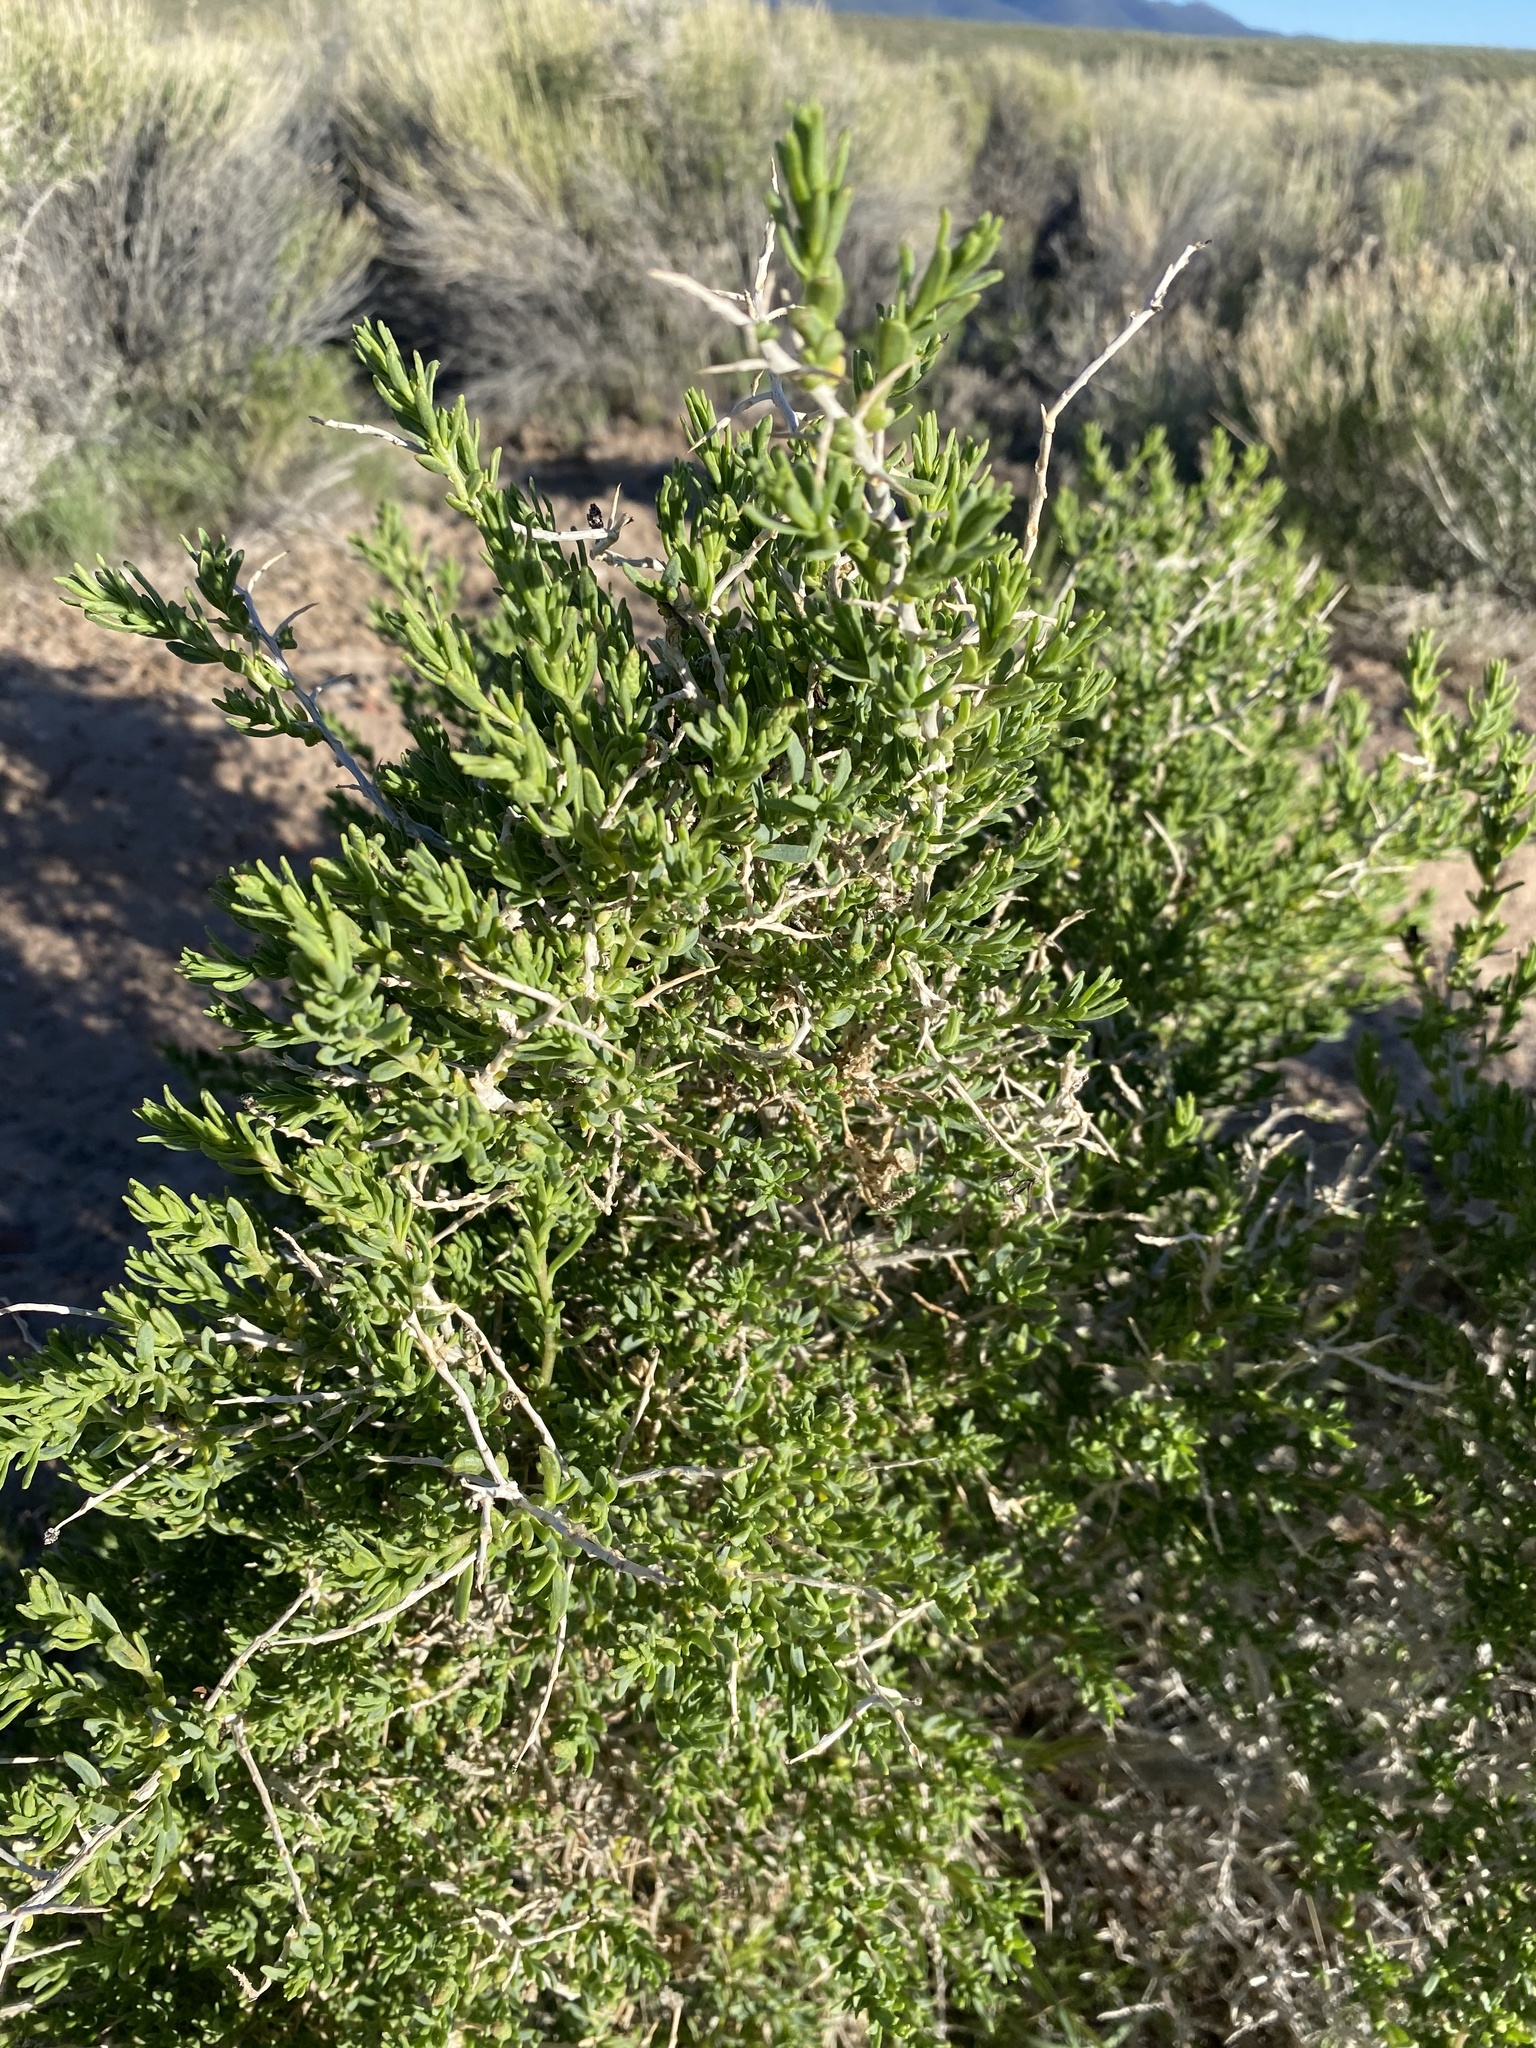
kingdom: Plantae
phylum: Tracheophyta
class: Magnoliopsida
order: Caryophyllales
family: Sarcobataceae
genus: Sarcobatus
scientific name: Sarcobatus vermiculatus
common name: Greasewood
